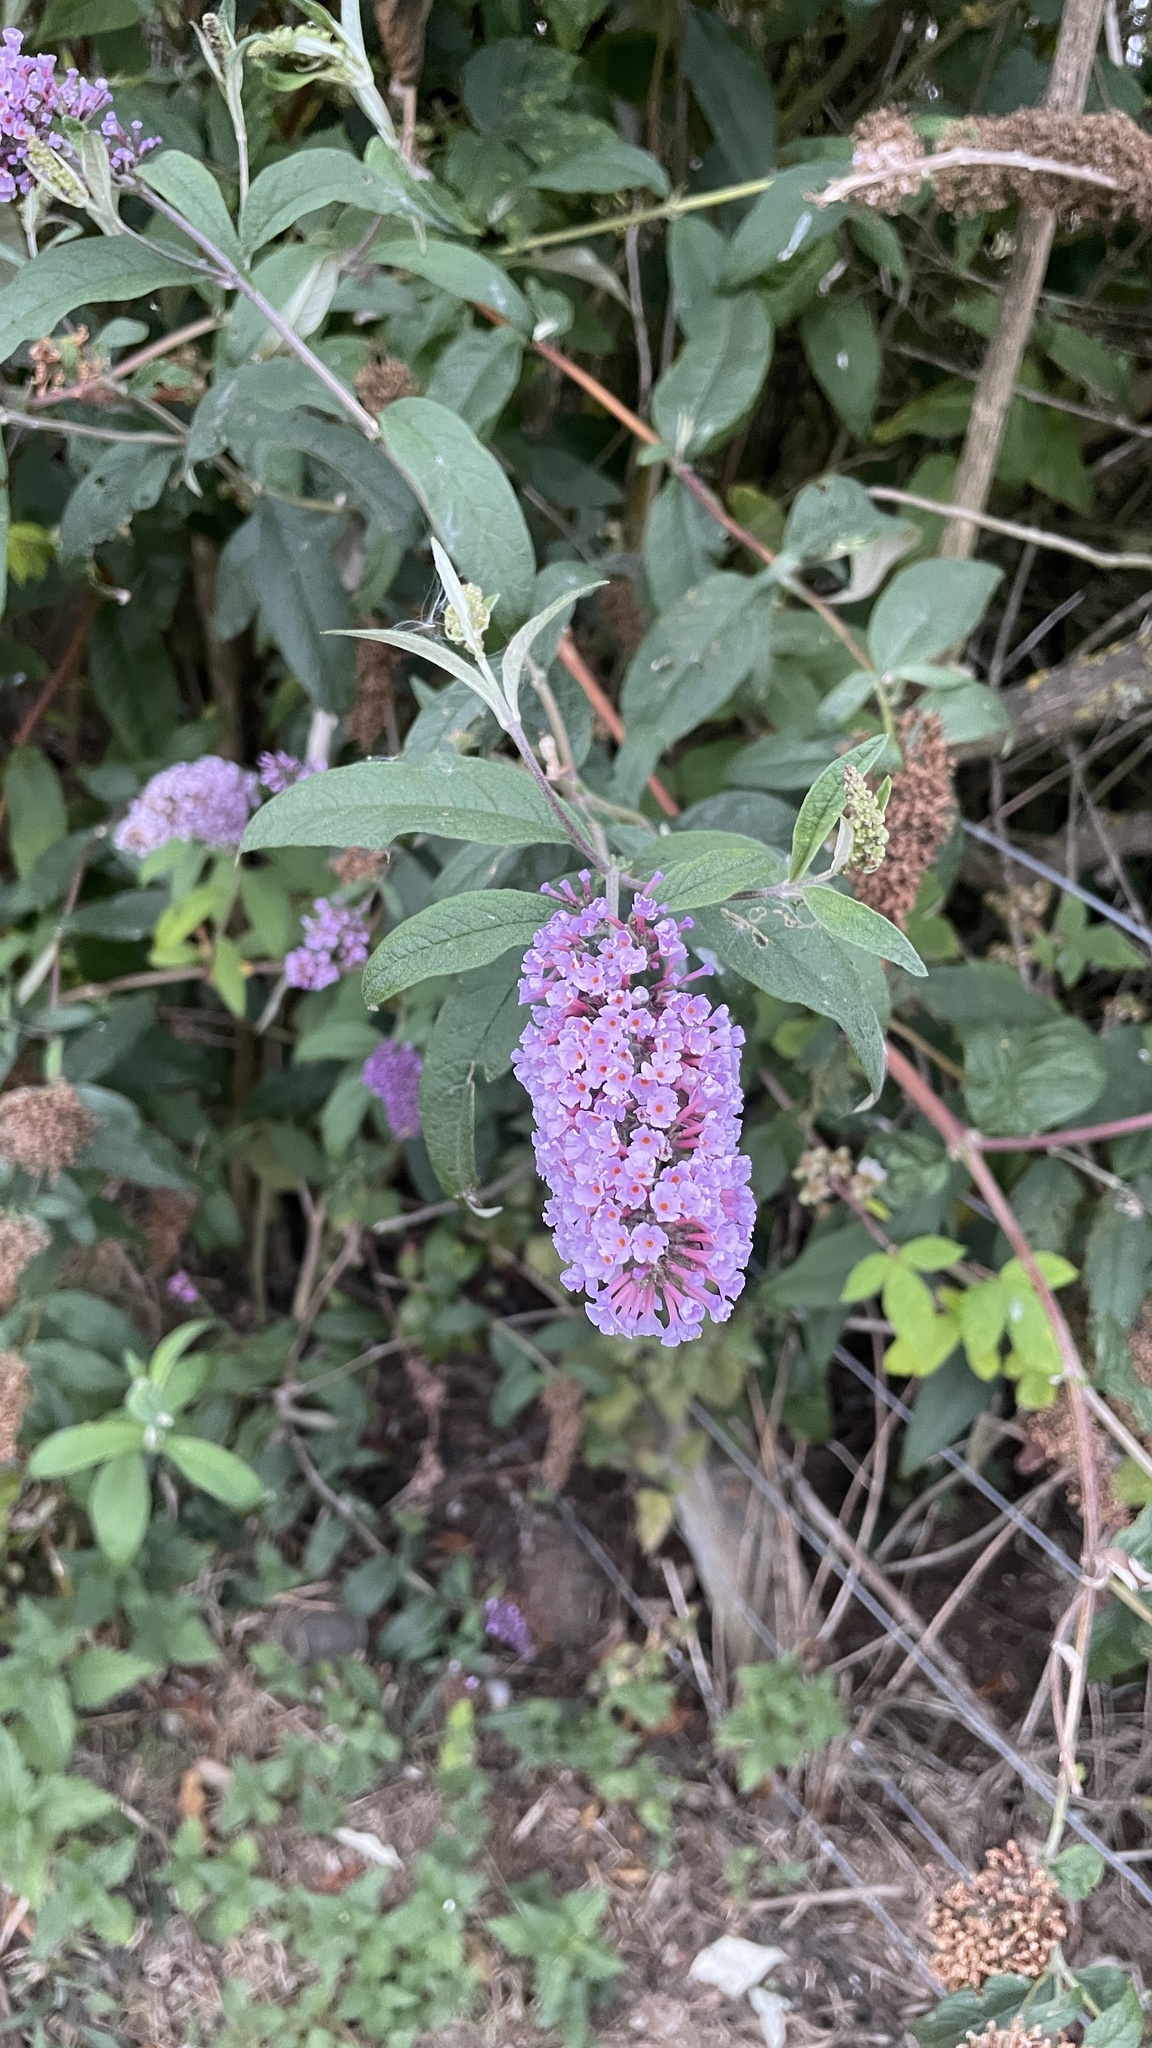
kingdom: Plantae
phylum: Tracheophyta
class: Magnoliopsida
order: Lamiales
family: Scrophulariaceae
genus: Buddleja
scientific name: Buddleja davidii
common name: Butterfly-bush
